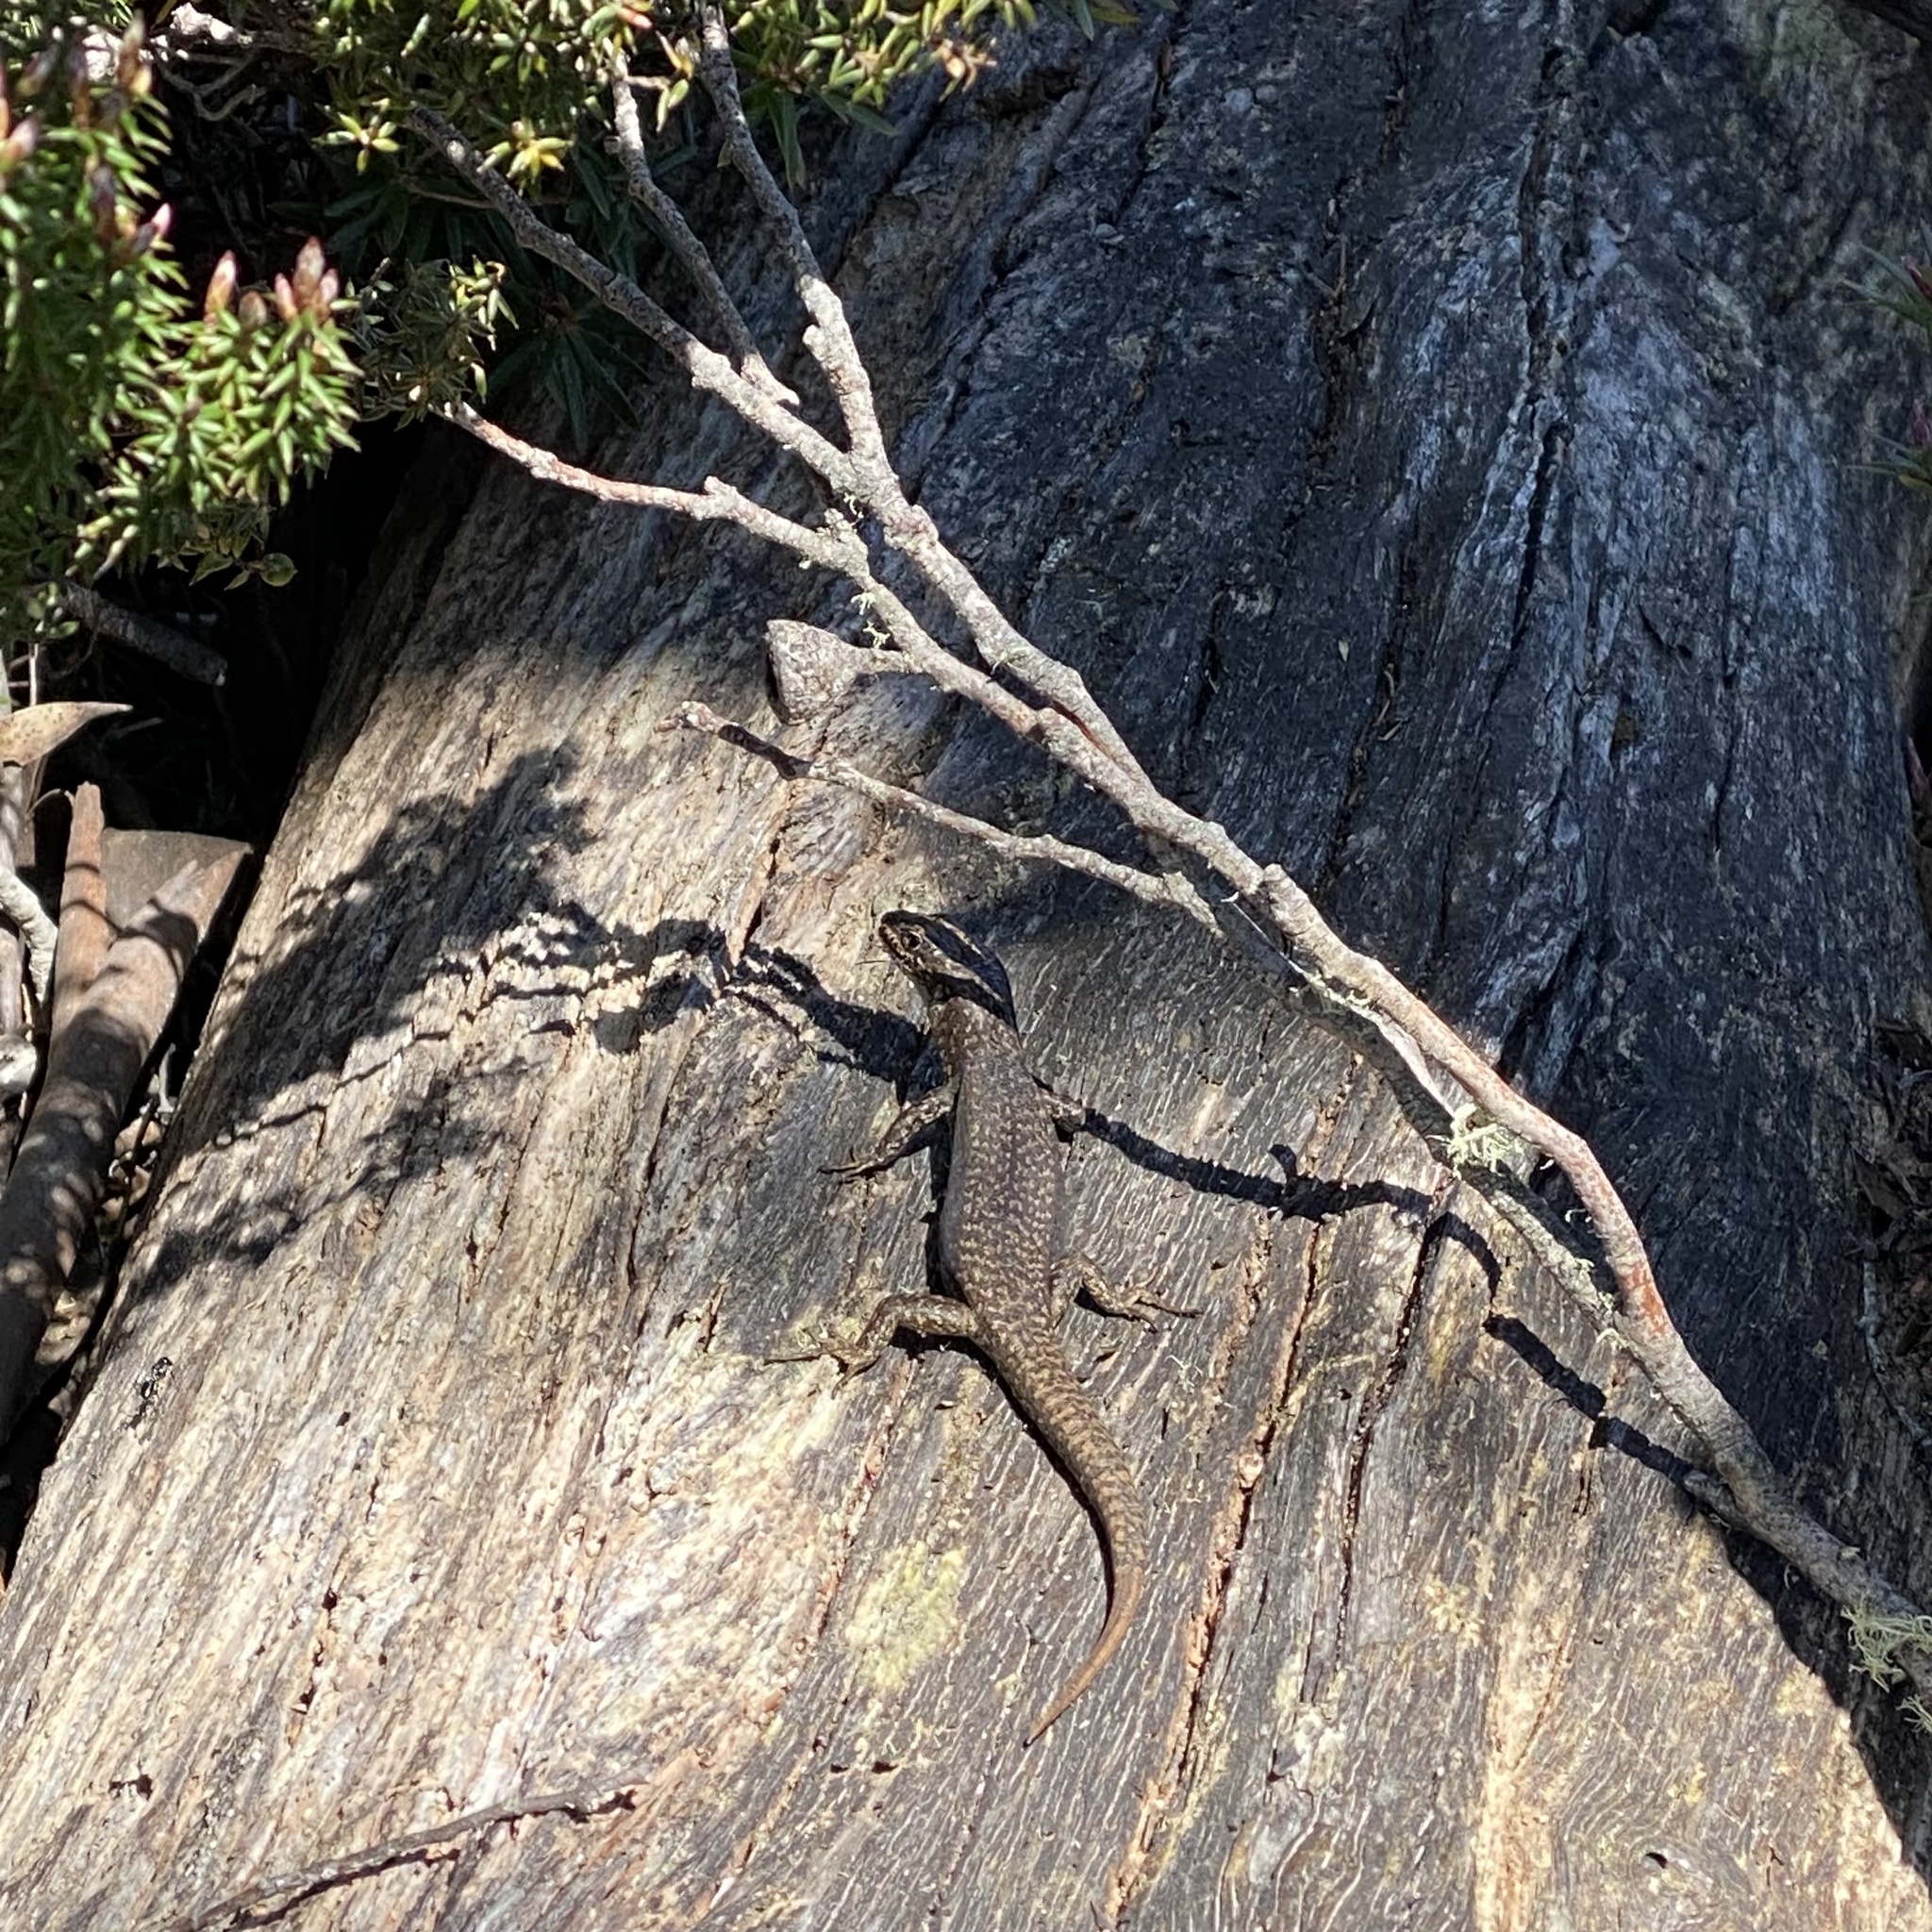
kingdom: Animalia
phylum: Chordata
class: Squamata
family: Scincidae
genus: Carinascincus
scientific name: Carinascincus ocellatus
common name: Ocellated cool-skink
